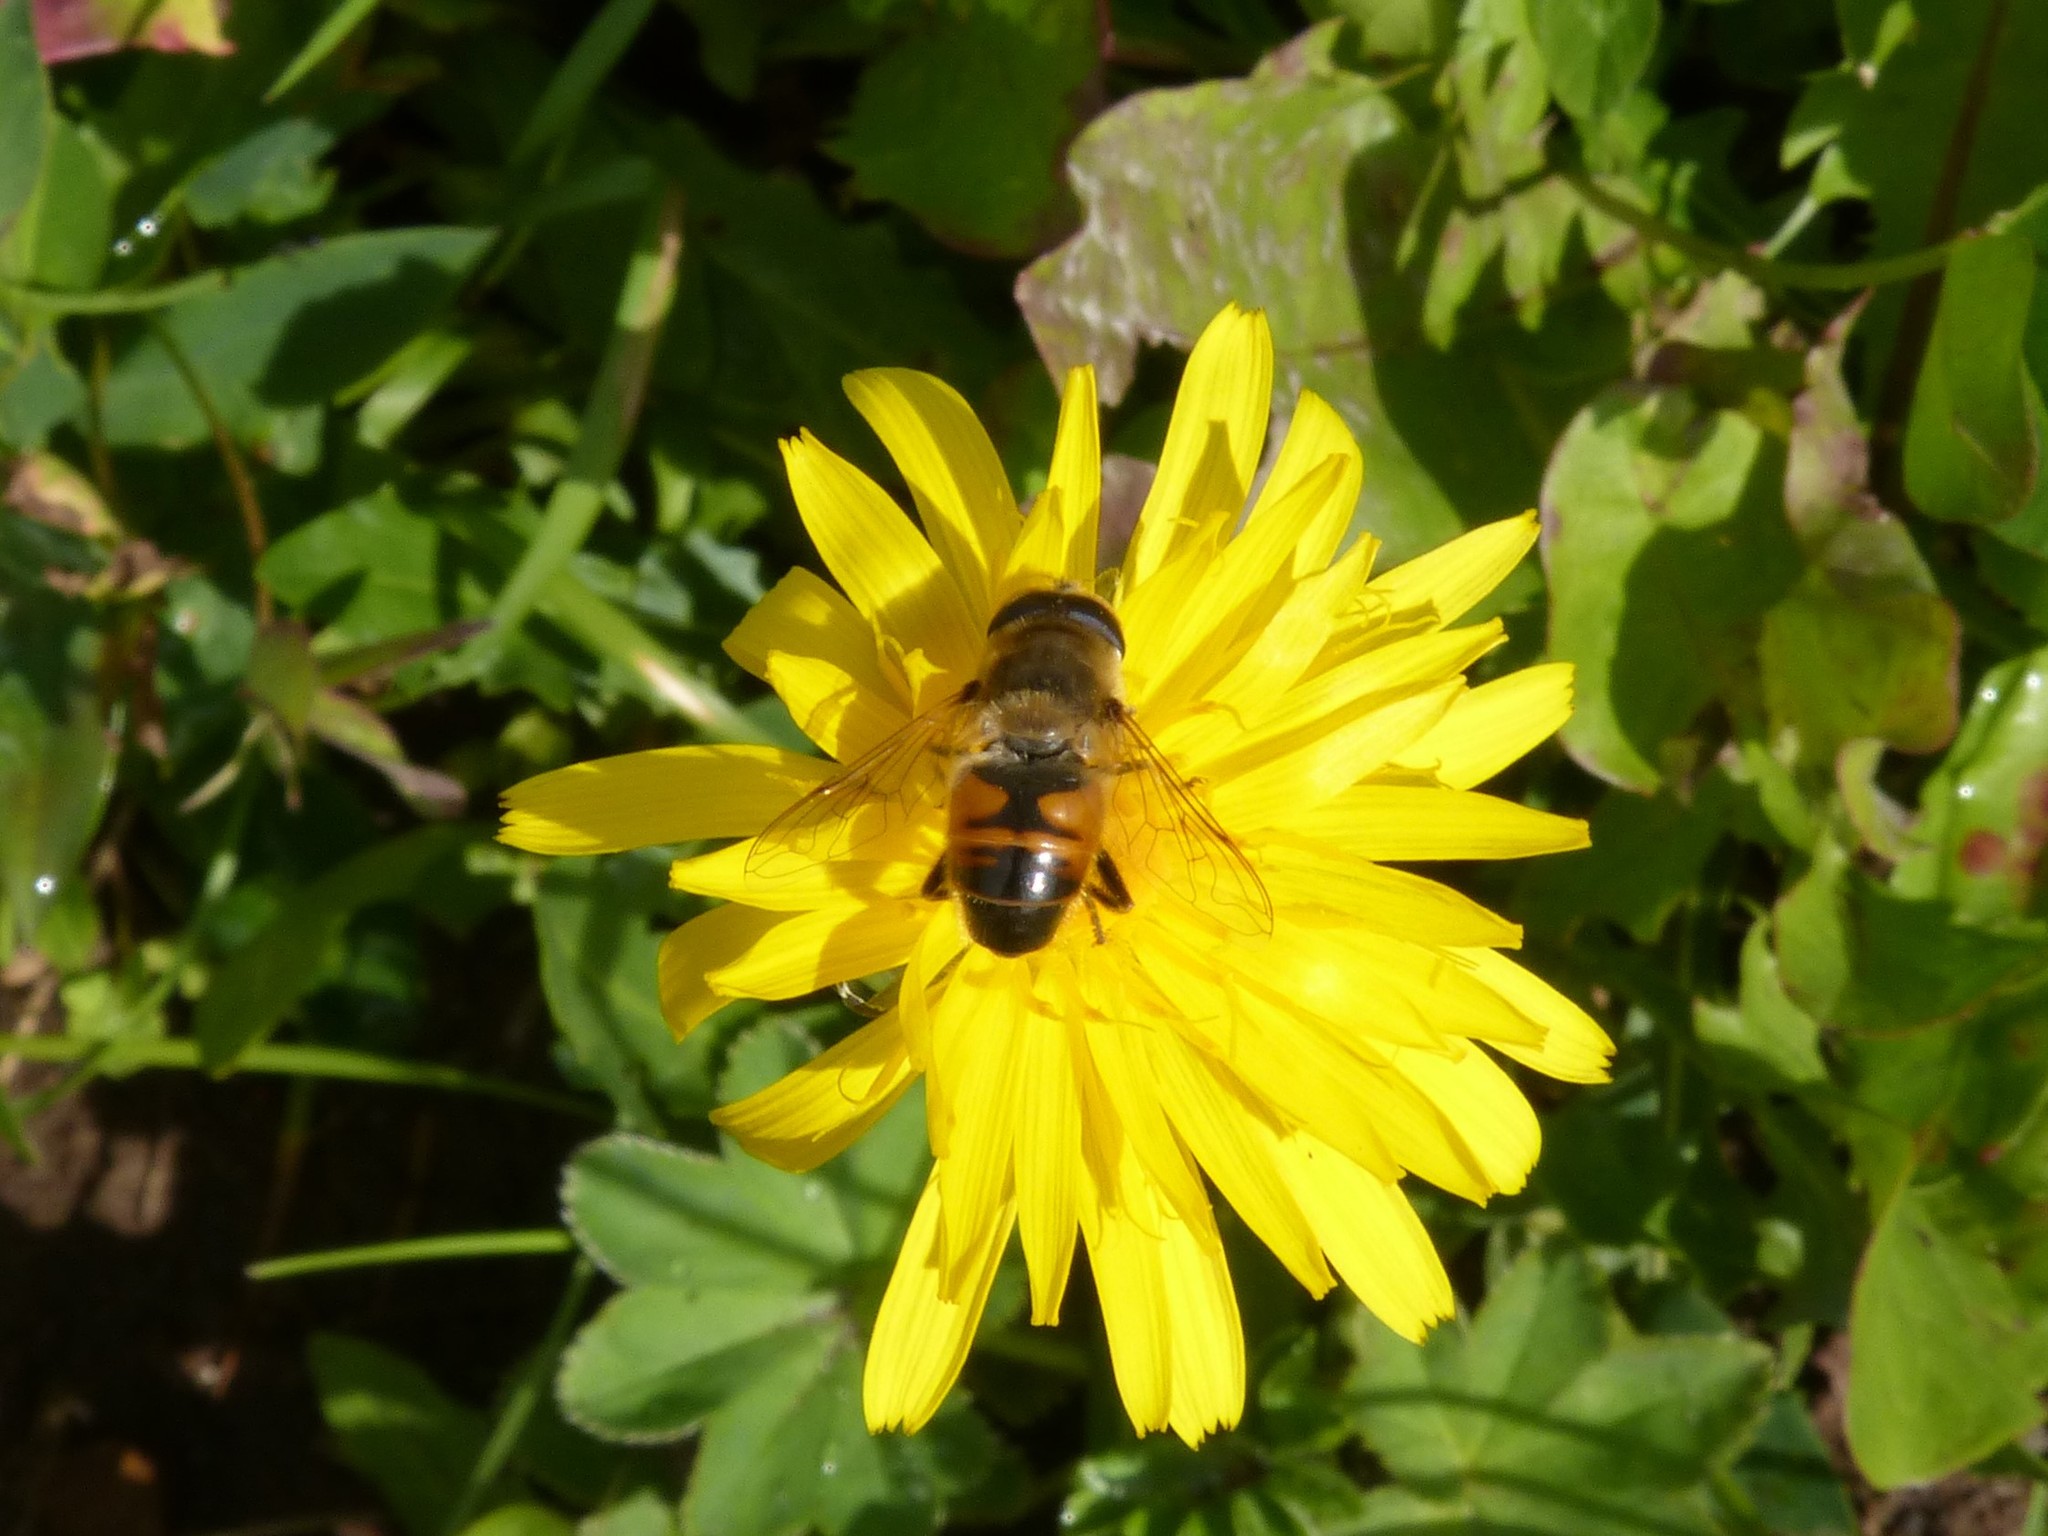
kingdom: Animalia
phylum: Arthropoda
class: Insecta
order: Diptera
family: Syrphidae
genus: Eristalis
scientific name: Eristalis tenax
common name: Drone fly
